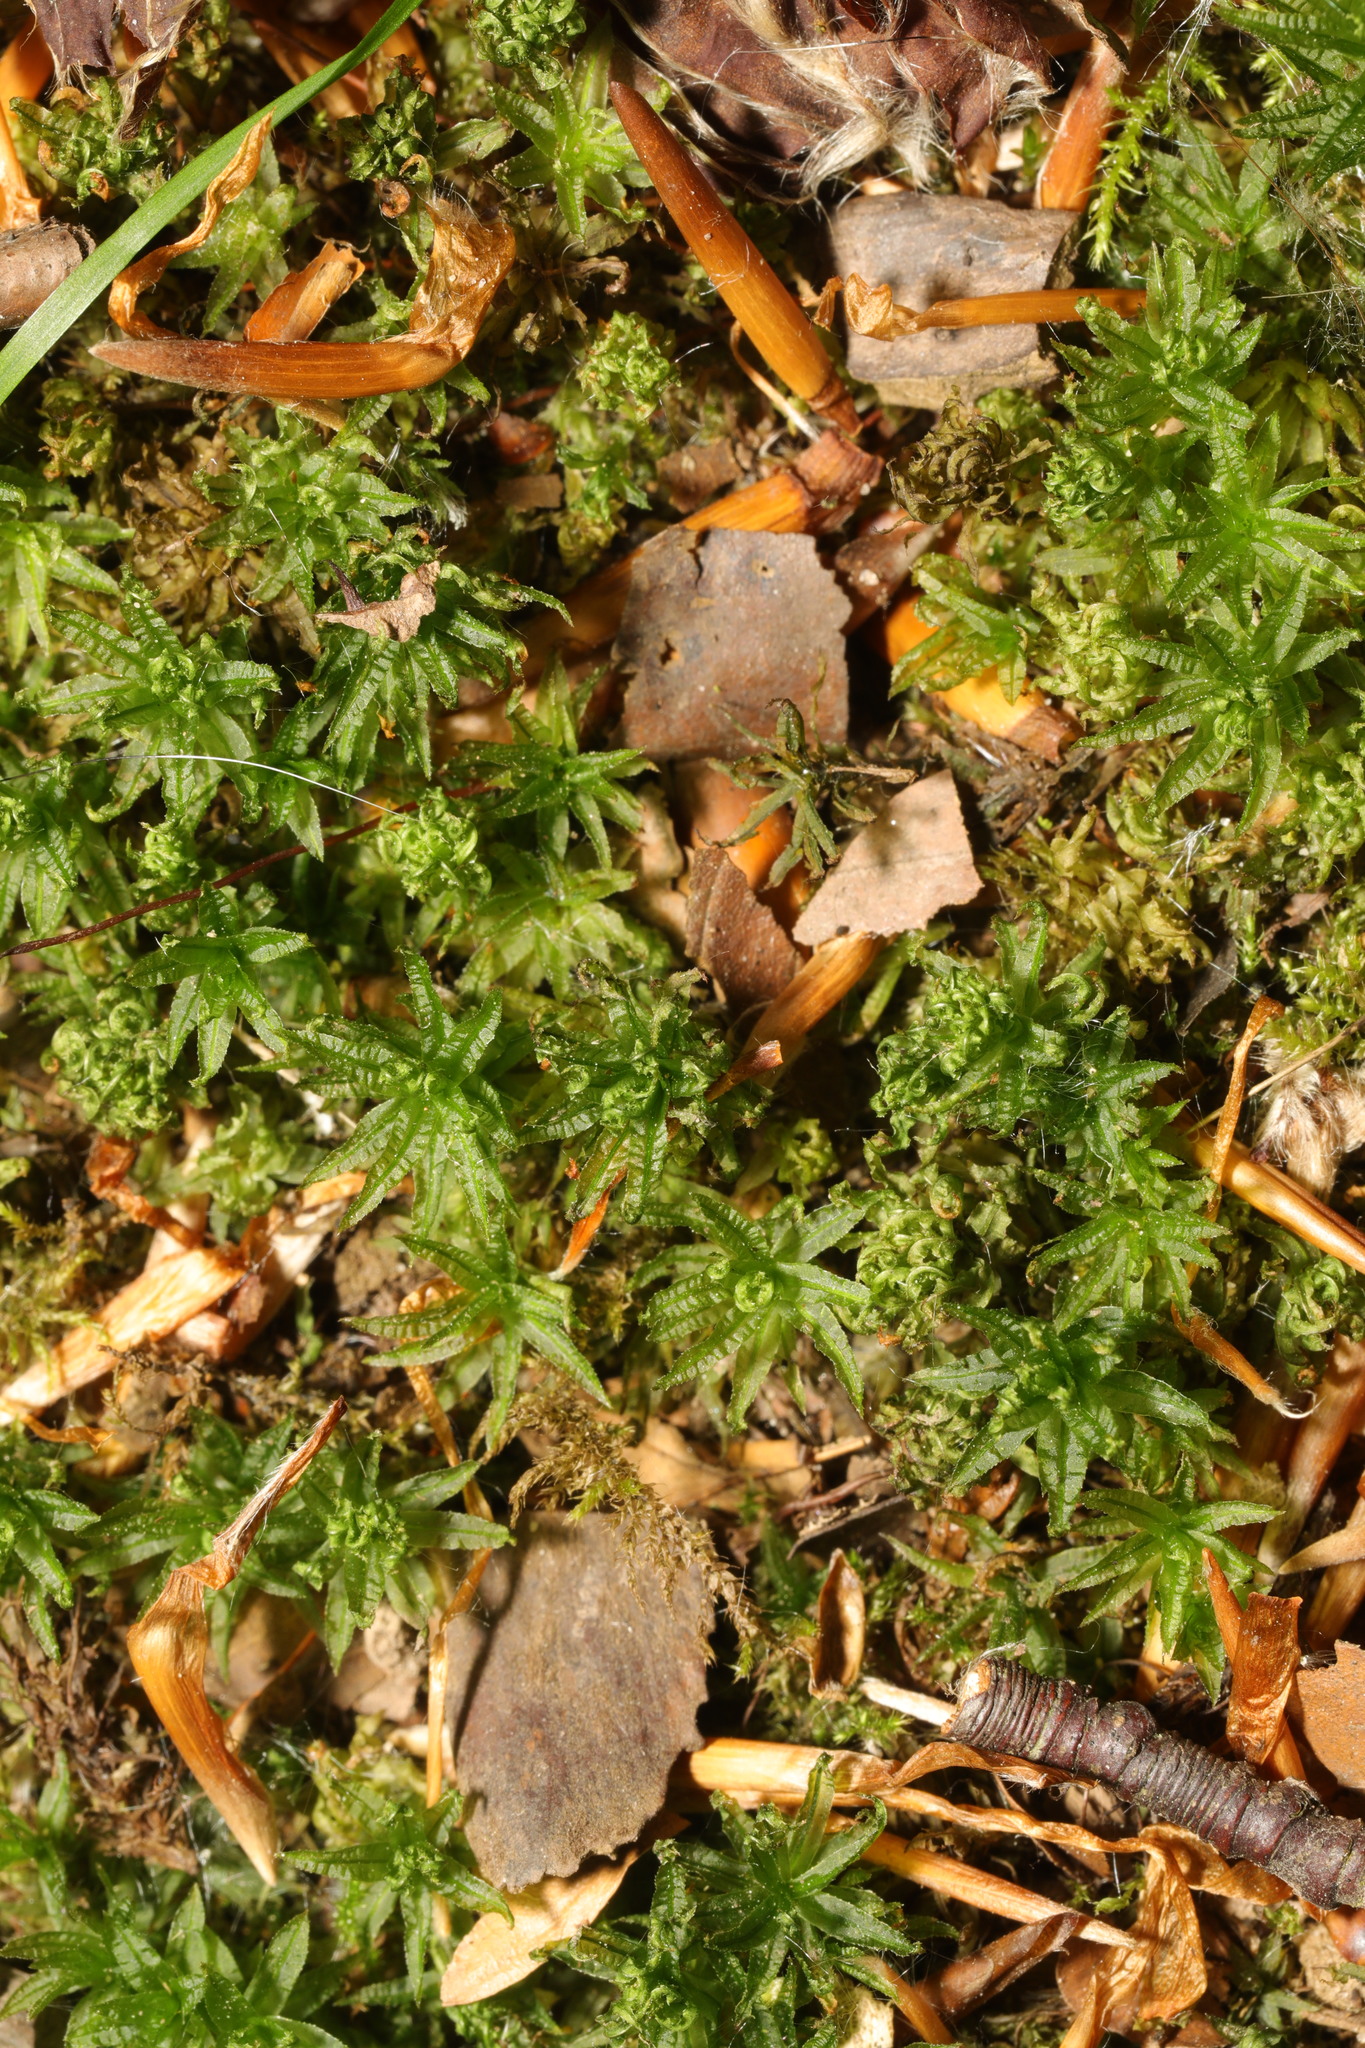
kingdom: Plantae
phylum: Bryophyta
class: Polytrichopsida
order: Polytrichales
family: Polytrichaceae
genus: Atrichum
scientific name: Atrichum undulatum
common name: Common smoothcap
